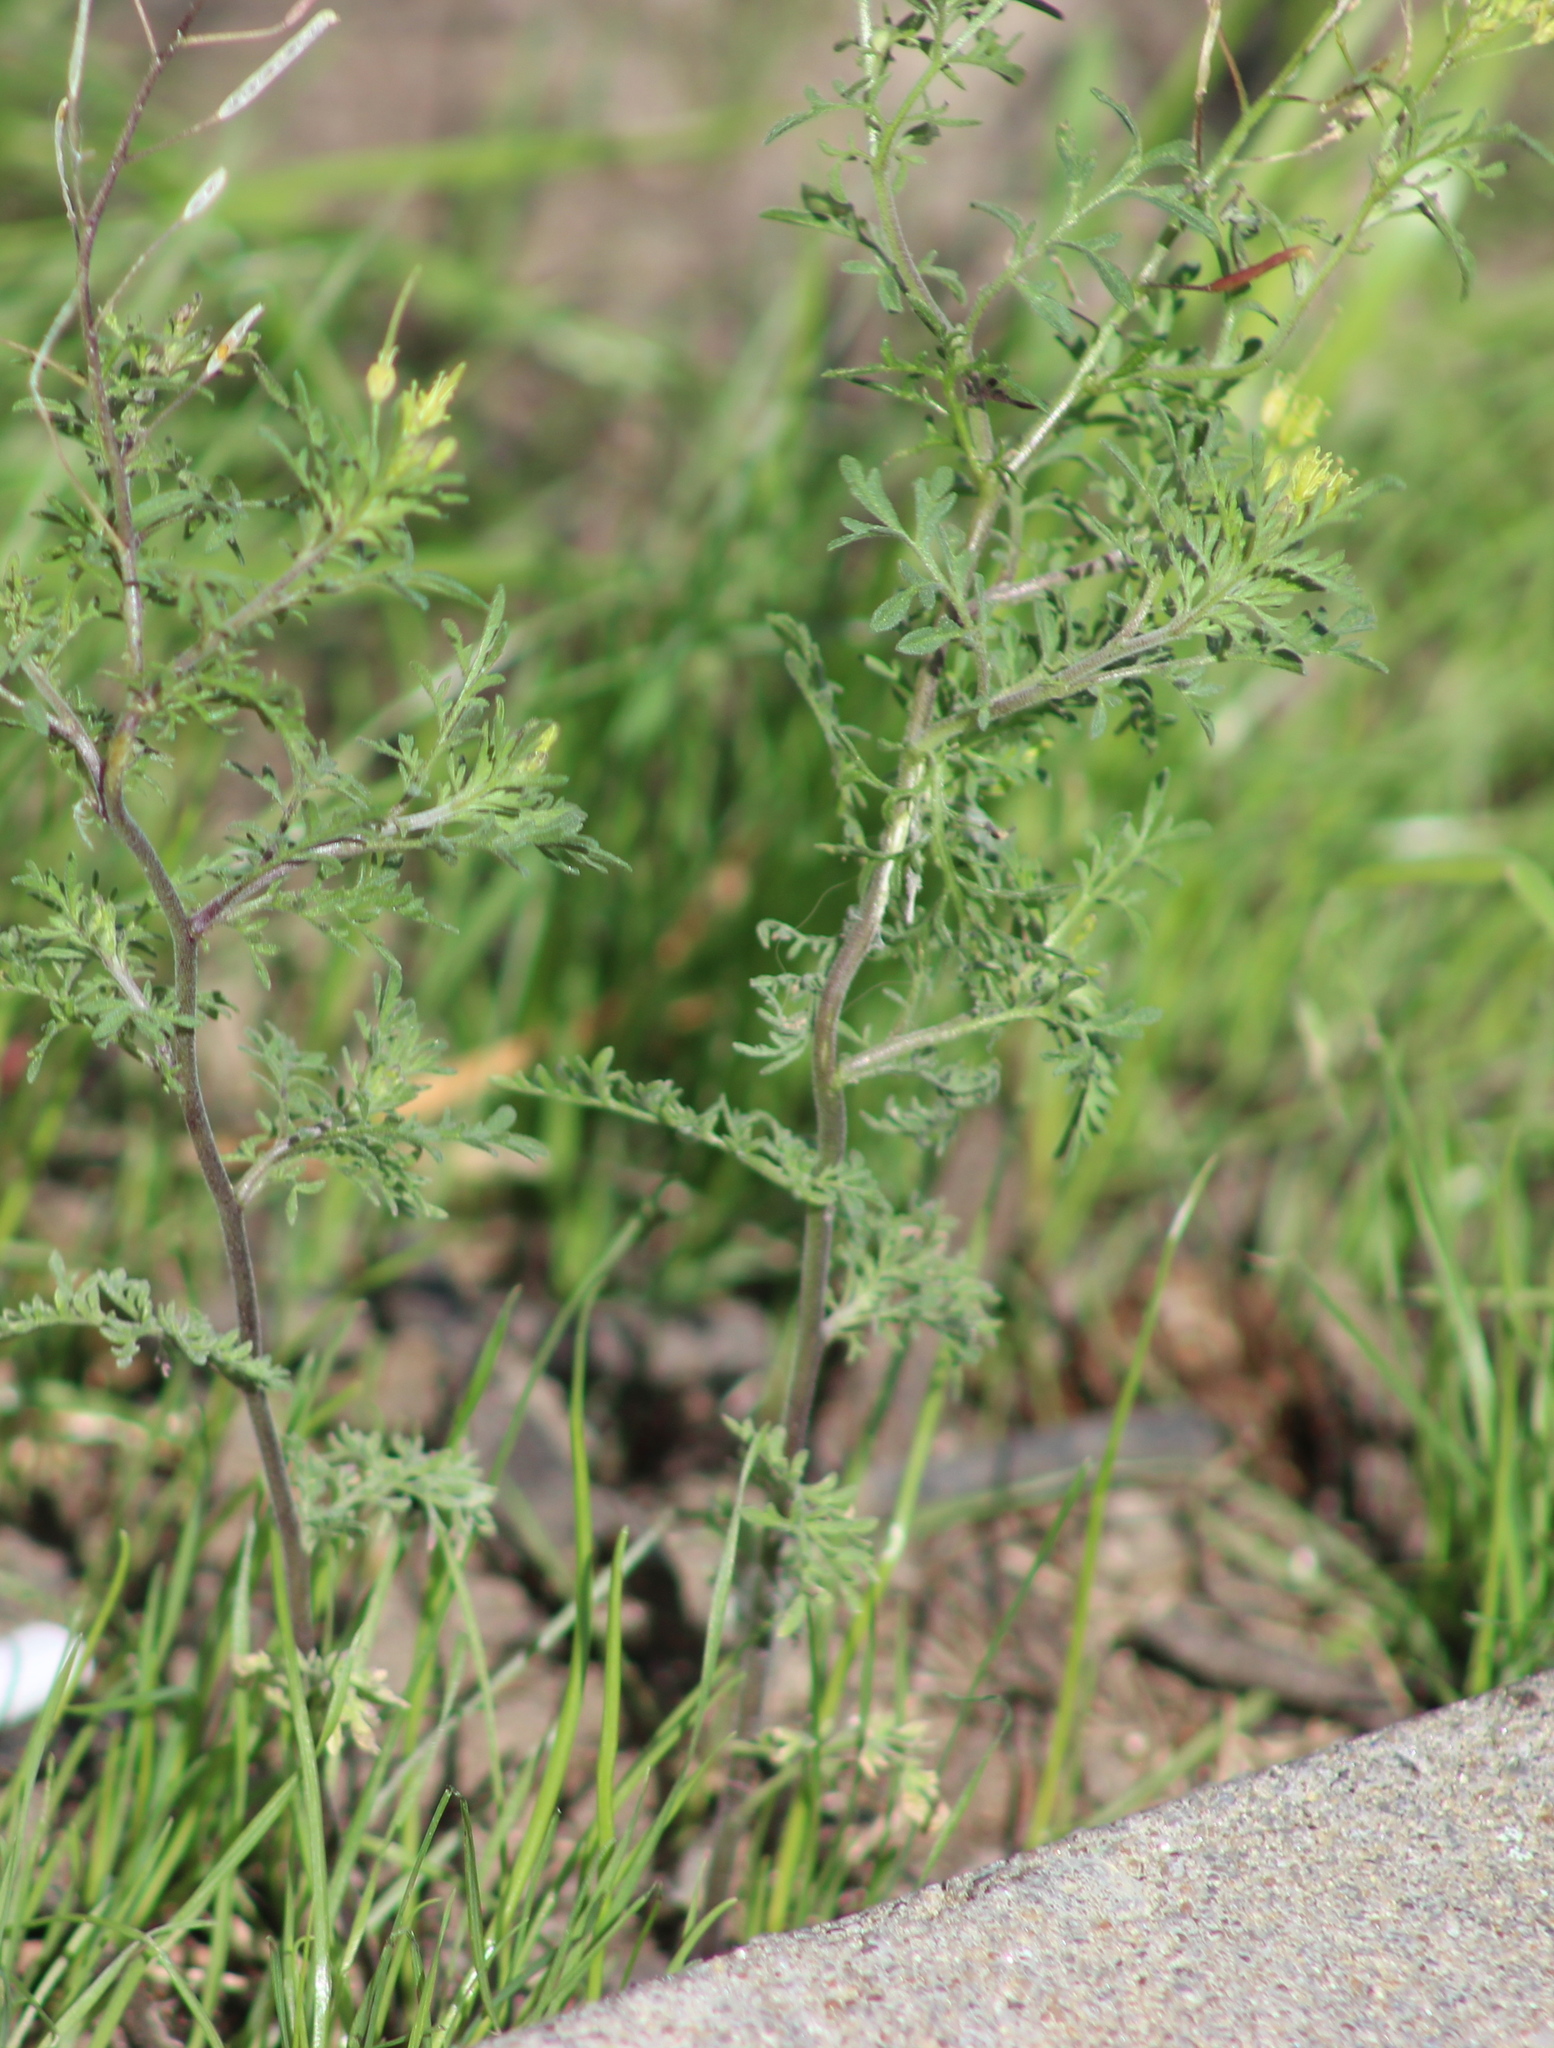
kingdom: Plantae
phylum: Tracheophyta
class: Magnoliopsida
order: Brassicales
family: Brassicaceae
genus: Descurainia
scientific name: Descurainia sophia
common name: Flixweed
